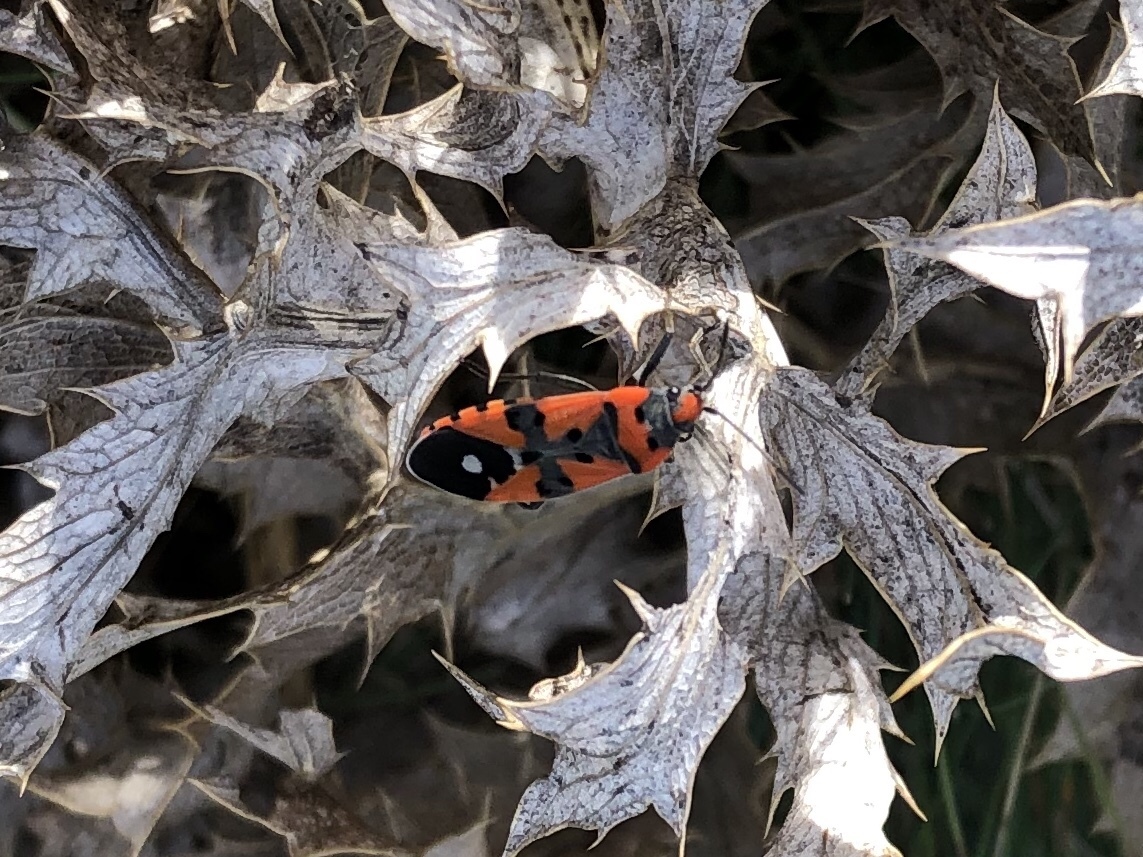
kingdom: Animalia
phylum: Arthropoda
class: Insecta
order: Hemiptera
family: Lygaeidae
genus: Lygaeus
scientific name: Lygaeus equestris
